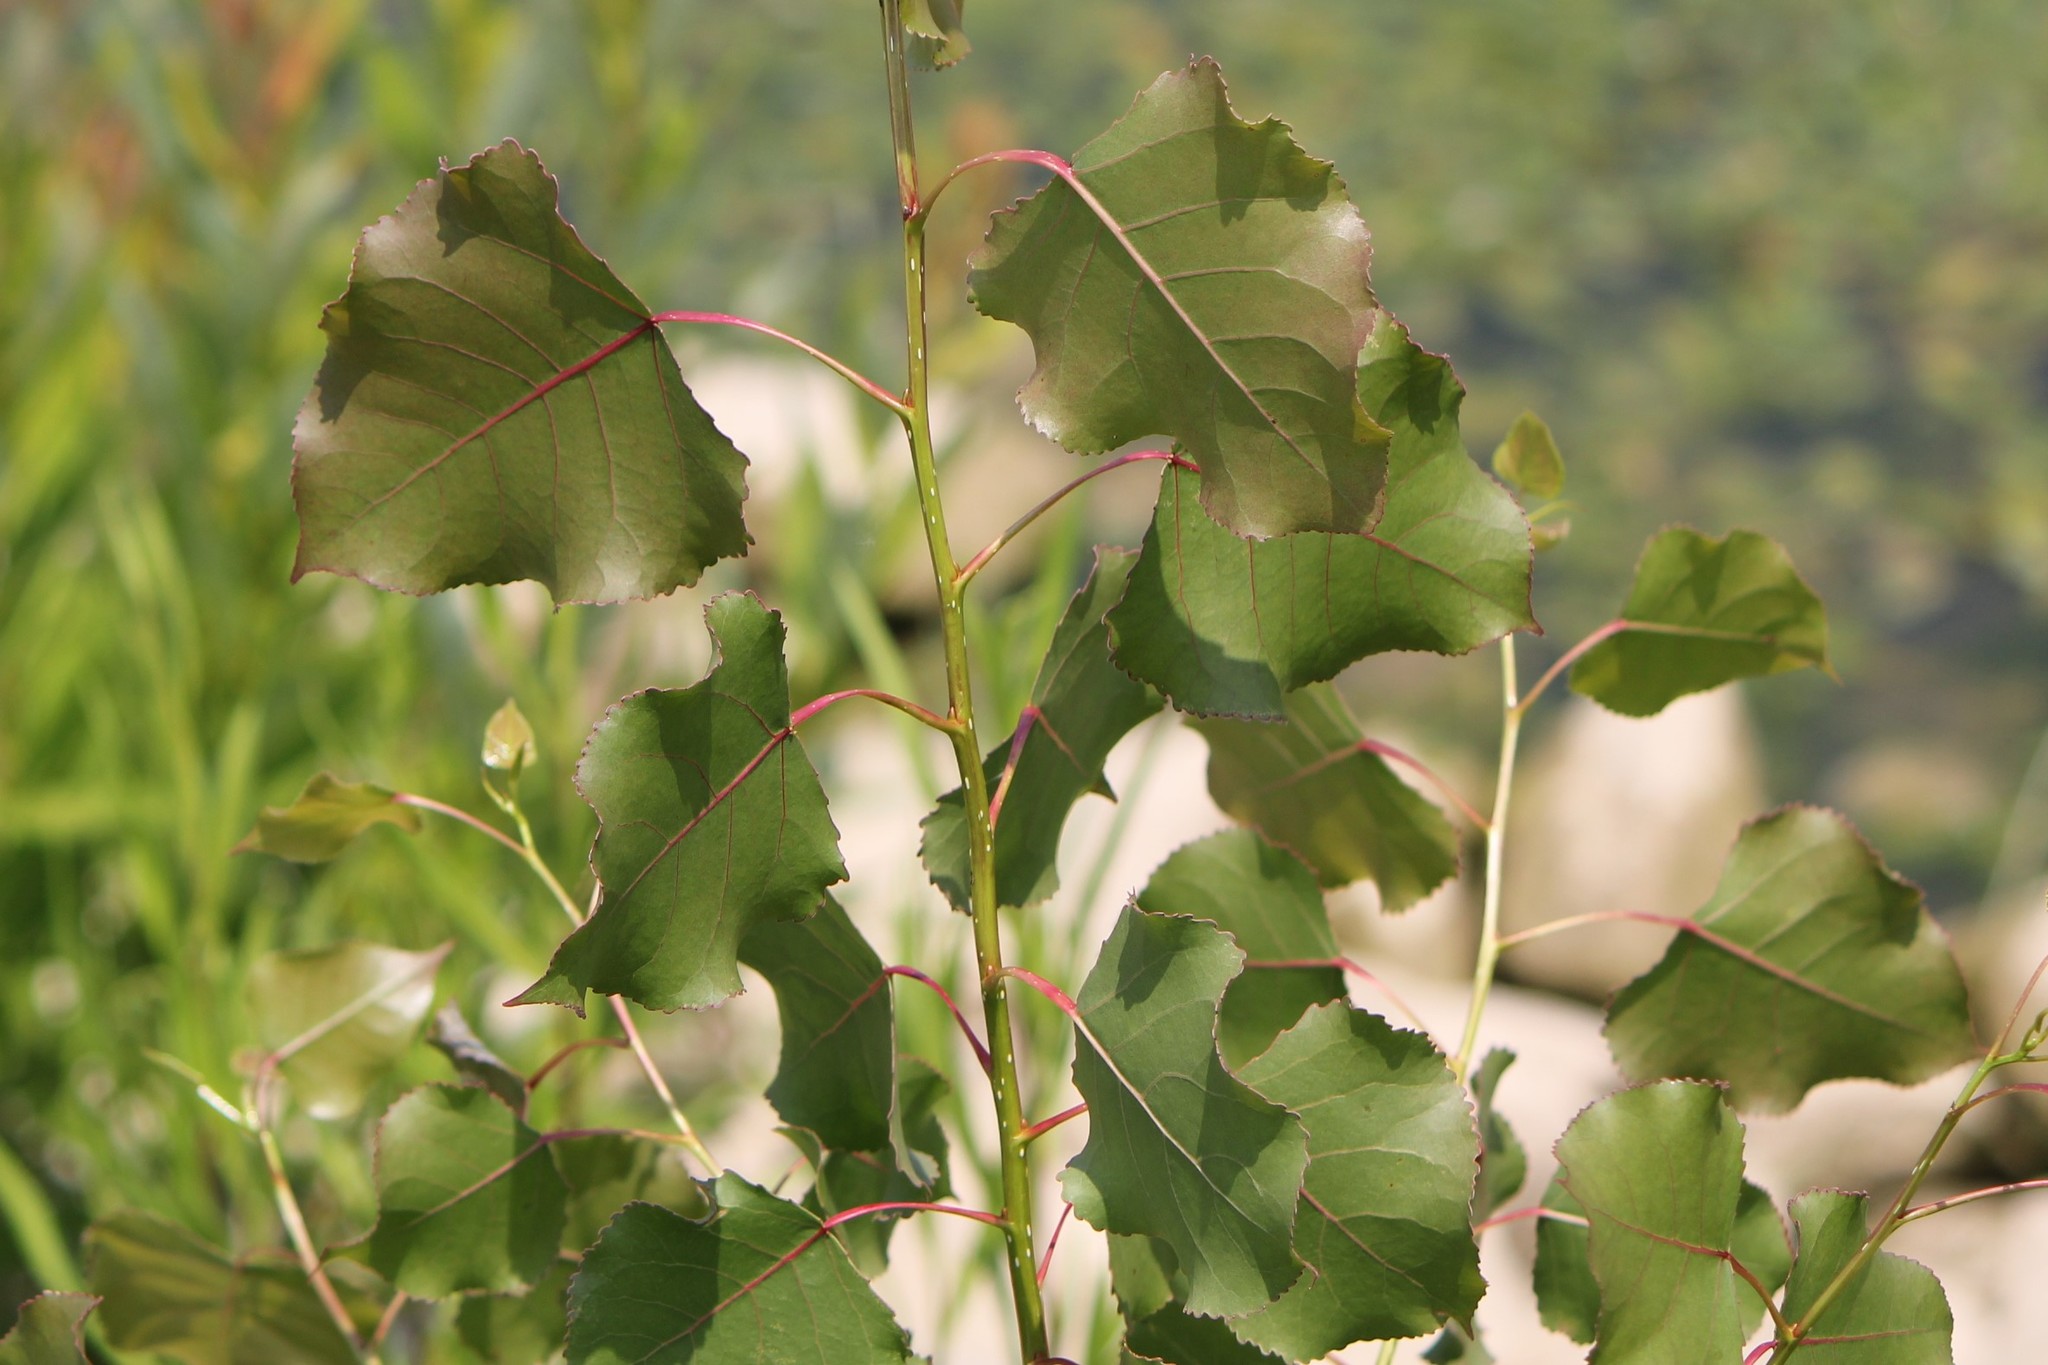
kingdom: Plantae
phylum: Tracheophyta
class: Magnoliopsida
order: Malpighiales
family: Salicaceae
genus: Populus
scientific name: Populus deltoides
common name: Eastern cottonwood
